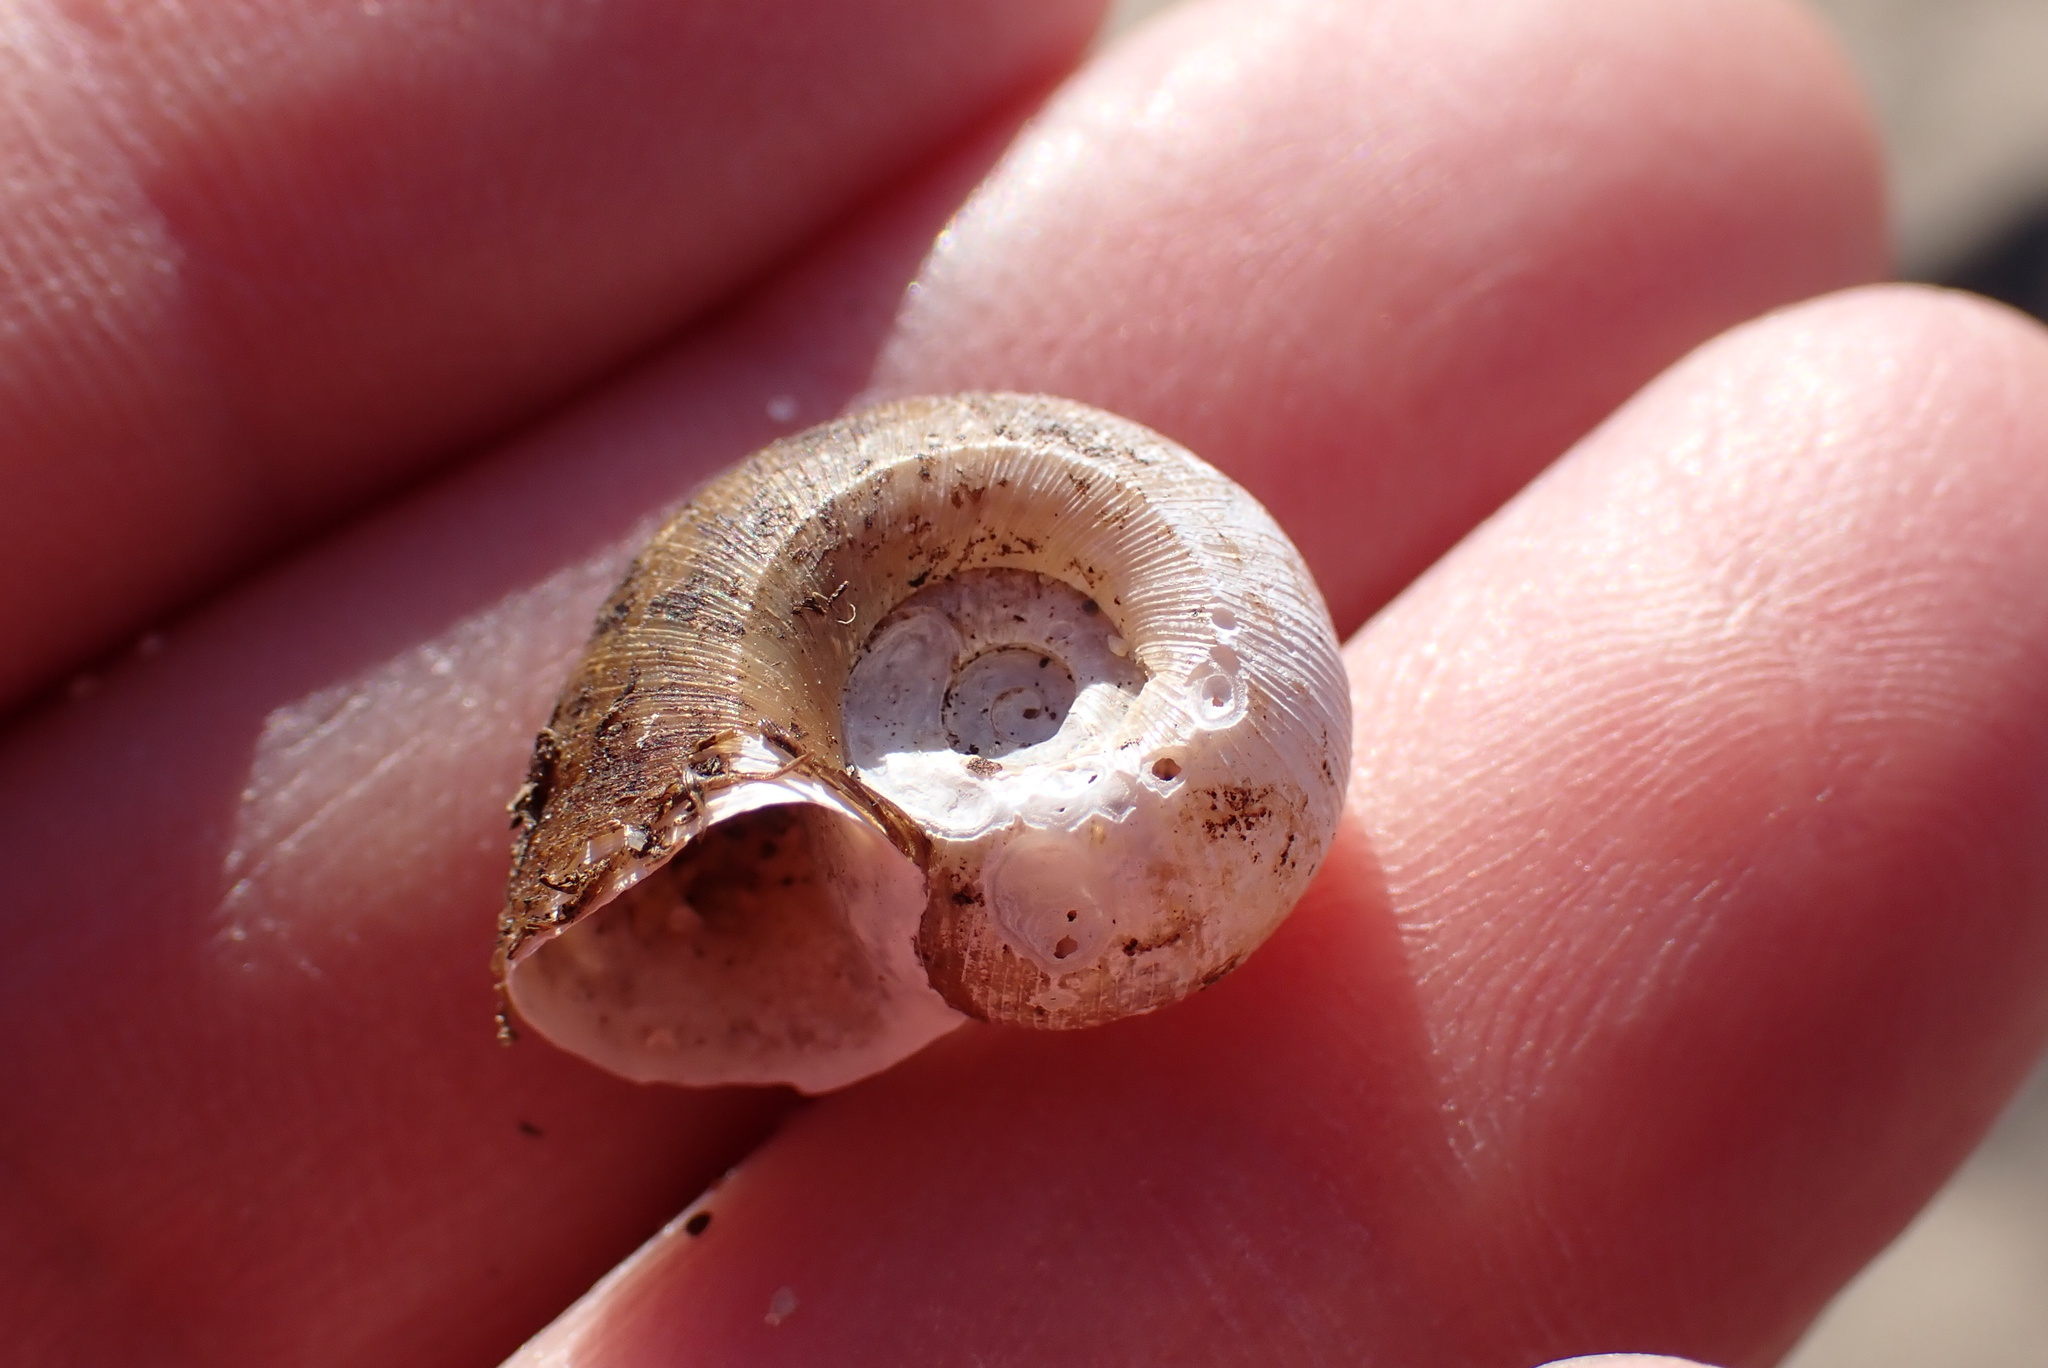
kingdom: Animalia
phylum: Mollusca
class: Gastropoda
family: Planorbidae
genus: Planorbella
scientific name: Planorbella trivolvis
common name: Marsh rams-horn
